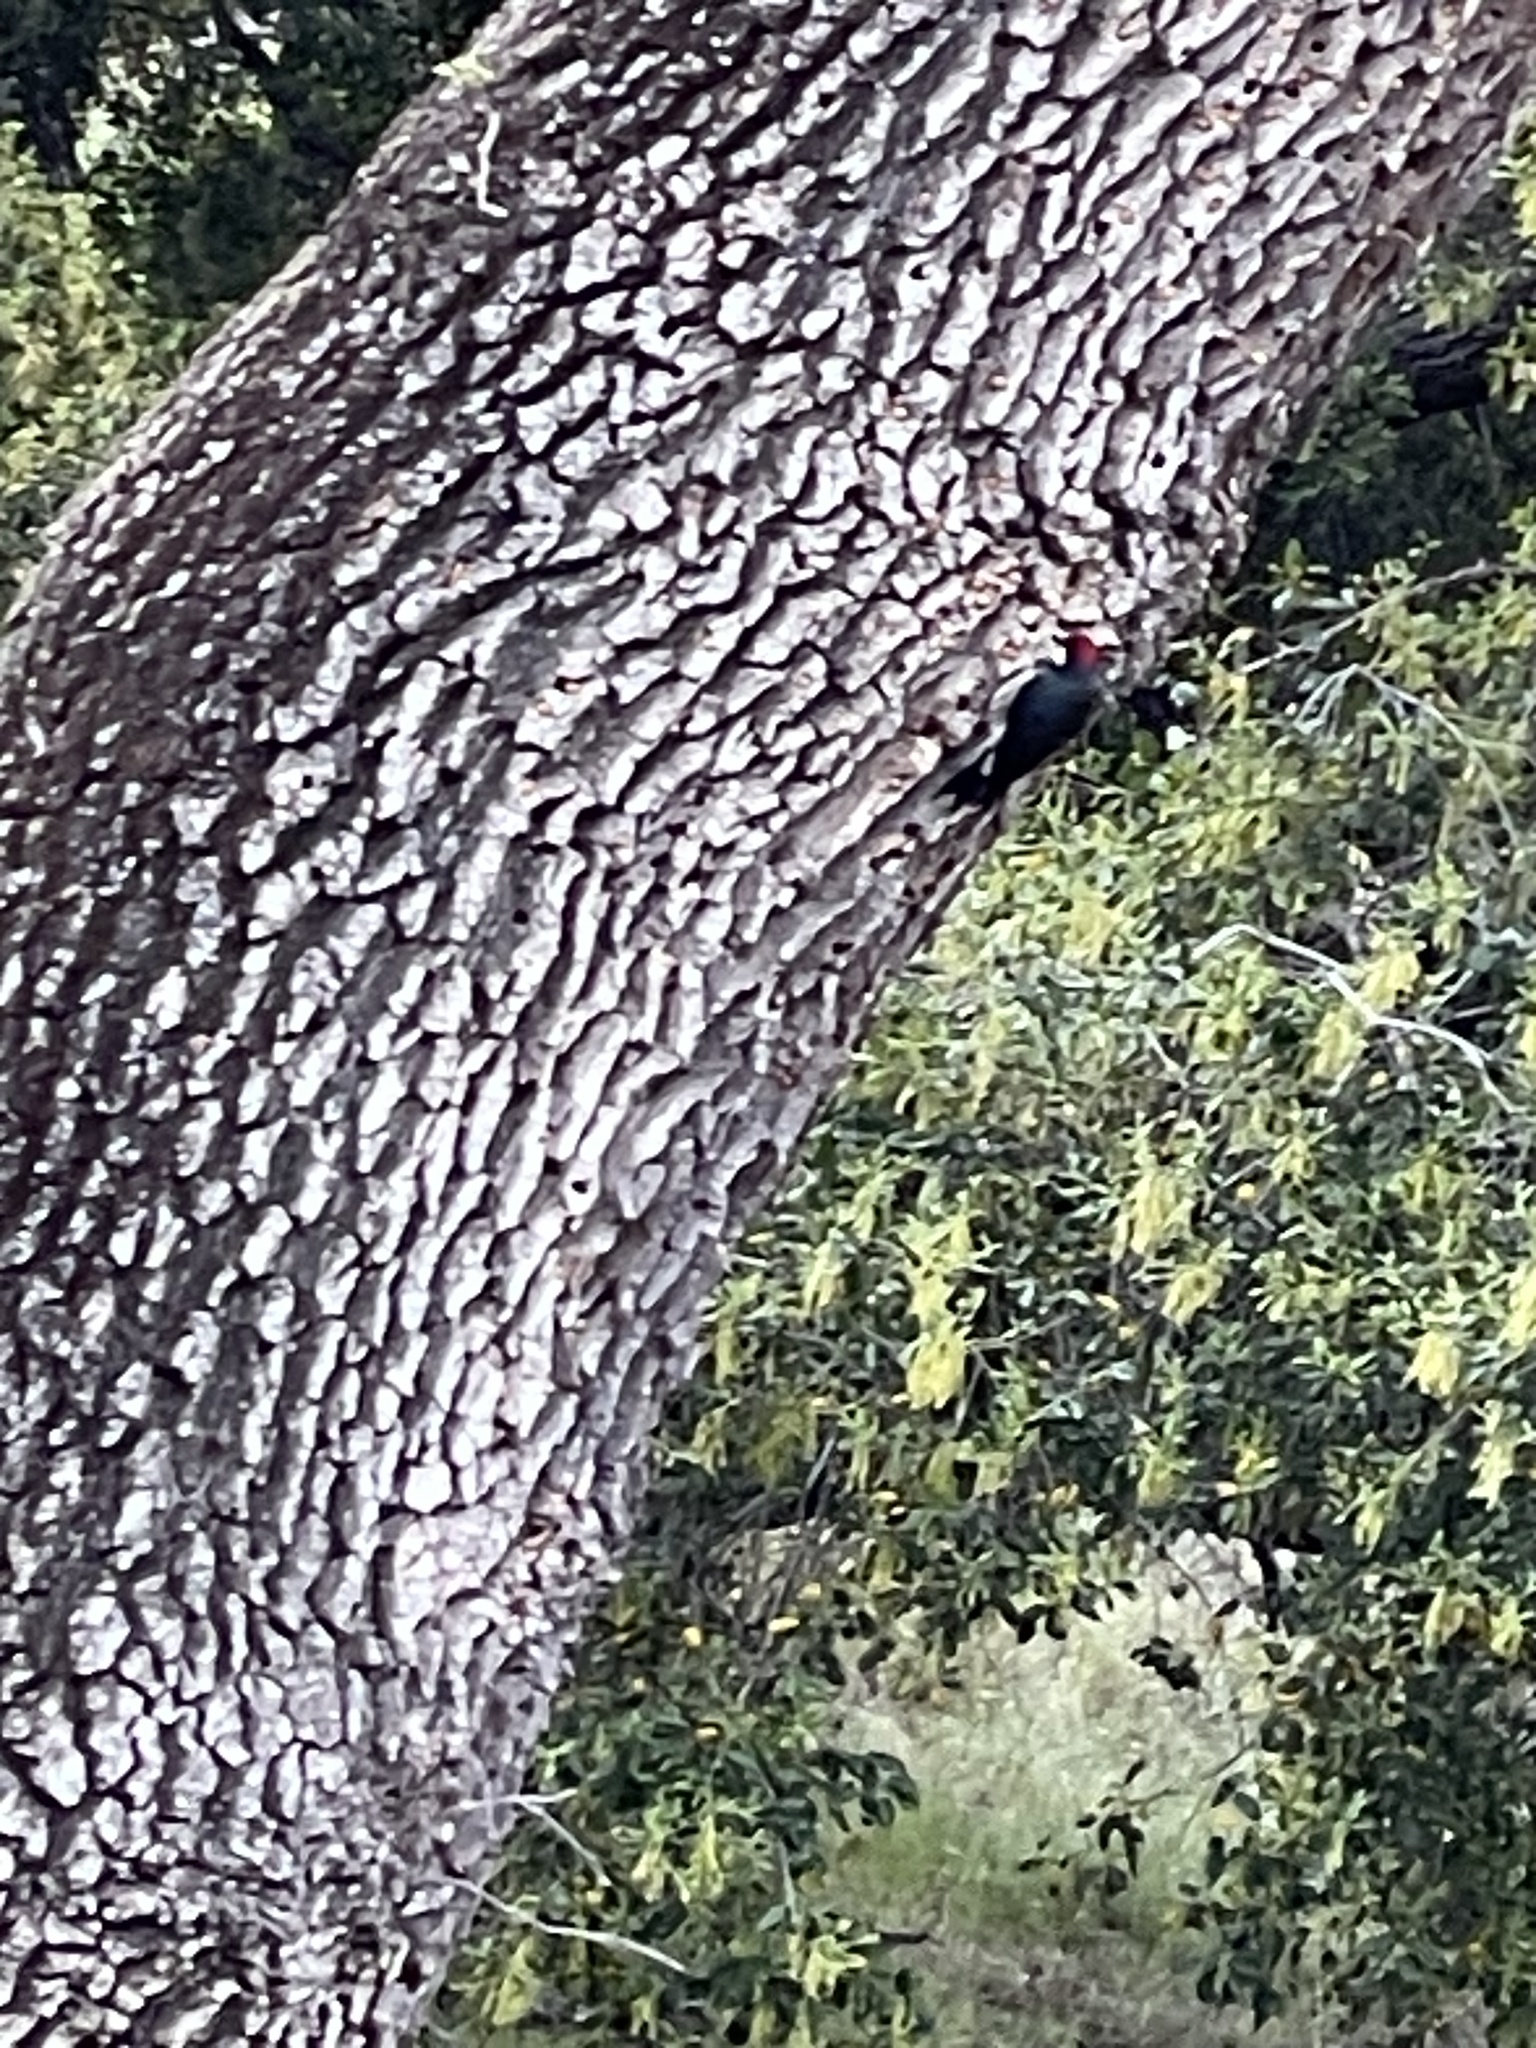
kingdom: Animalia
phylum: Chordata
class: Aves
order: Piciformes
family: Picidae
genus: Melanerpes
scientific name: Melanerpes formicivorus
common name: Acorn woodpecker
